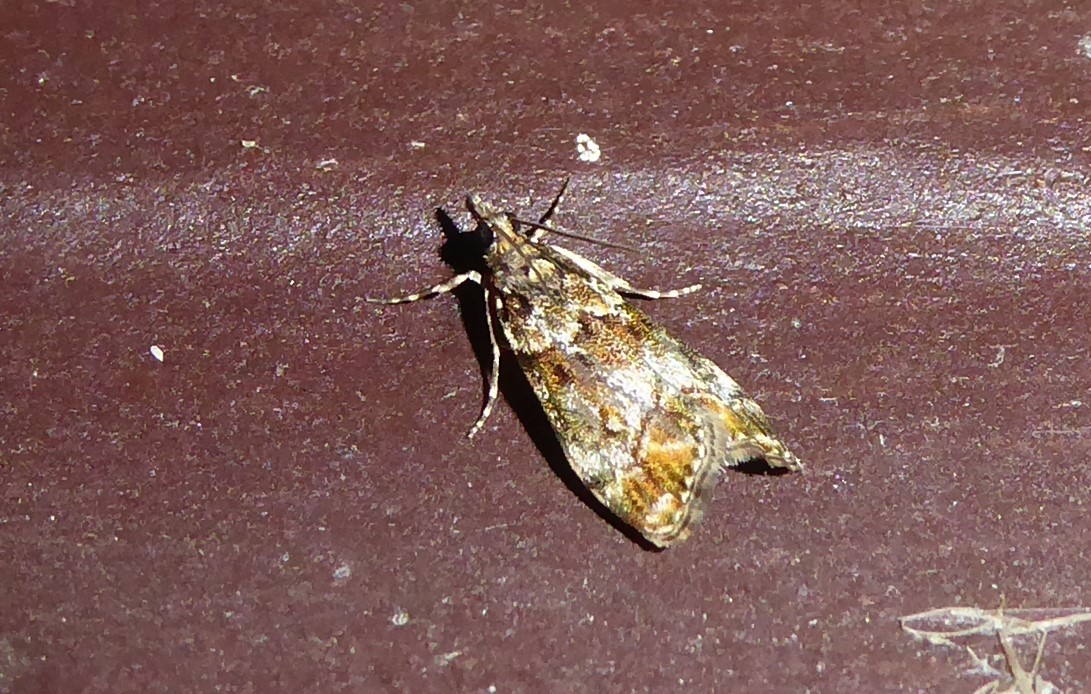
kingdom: Animalia
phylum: Arthropoda
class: Insecta
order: Lepidoptera
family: Crambidae
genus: Eudonia
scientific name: Eudonia minualis
